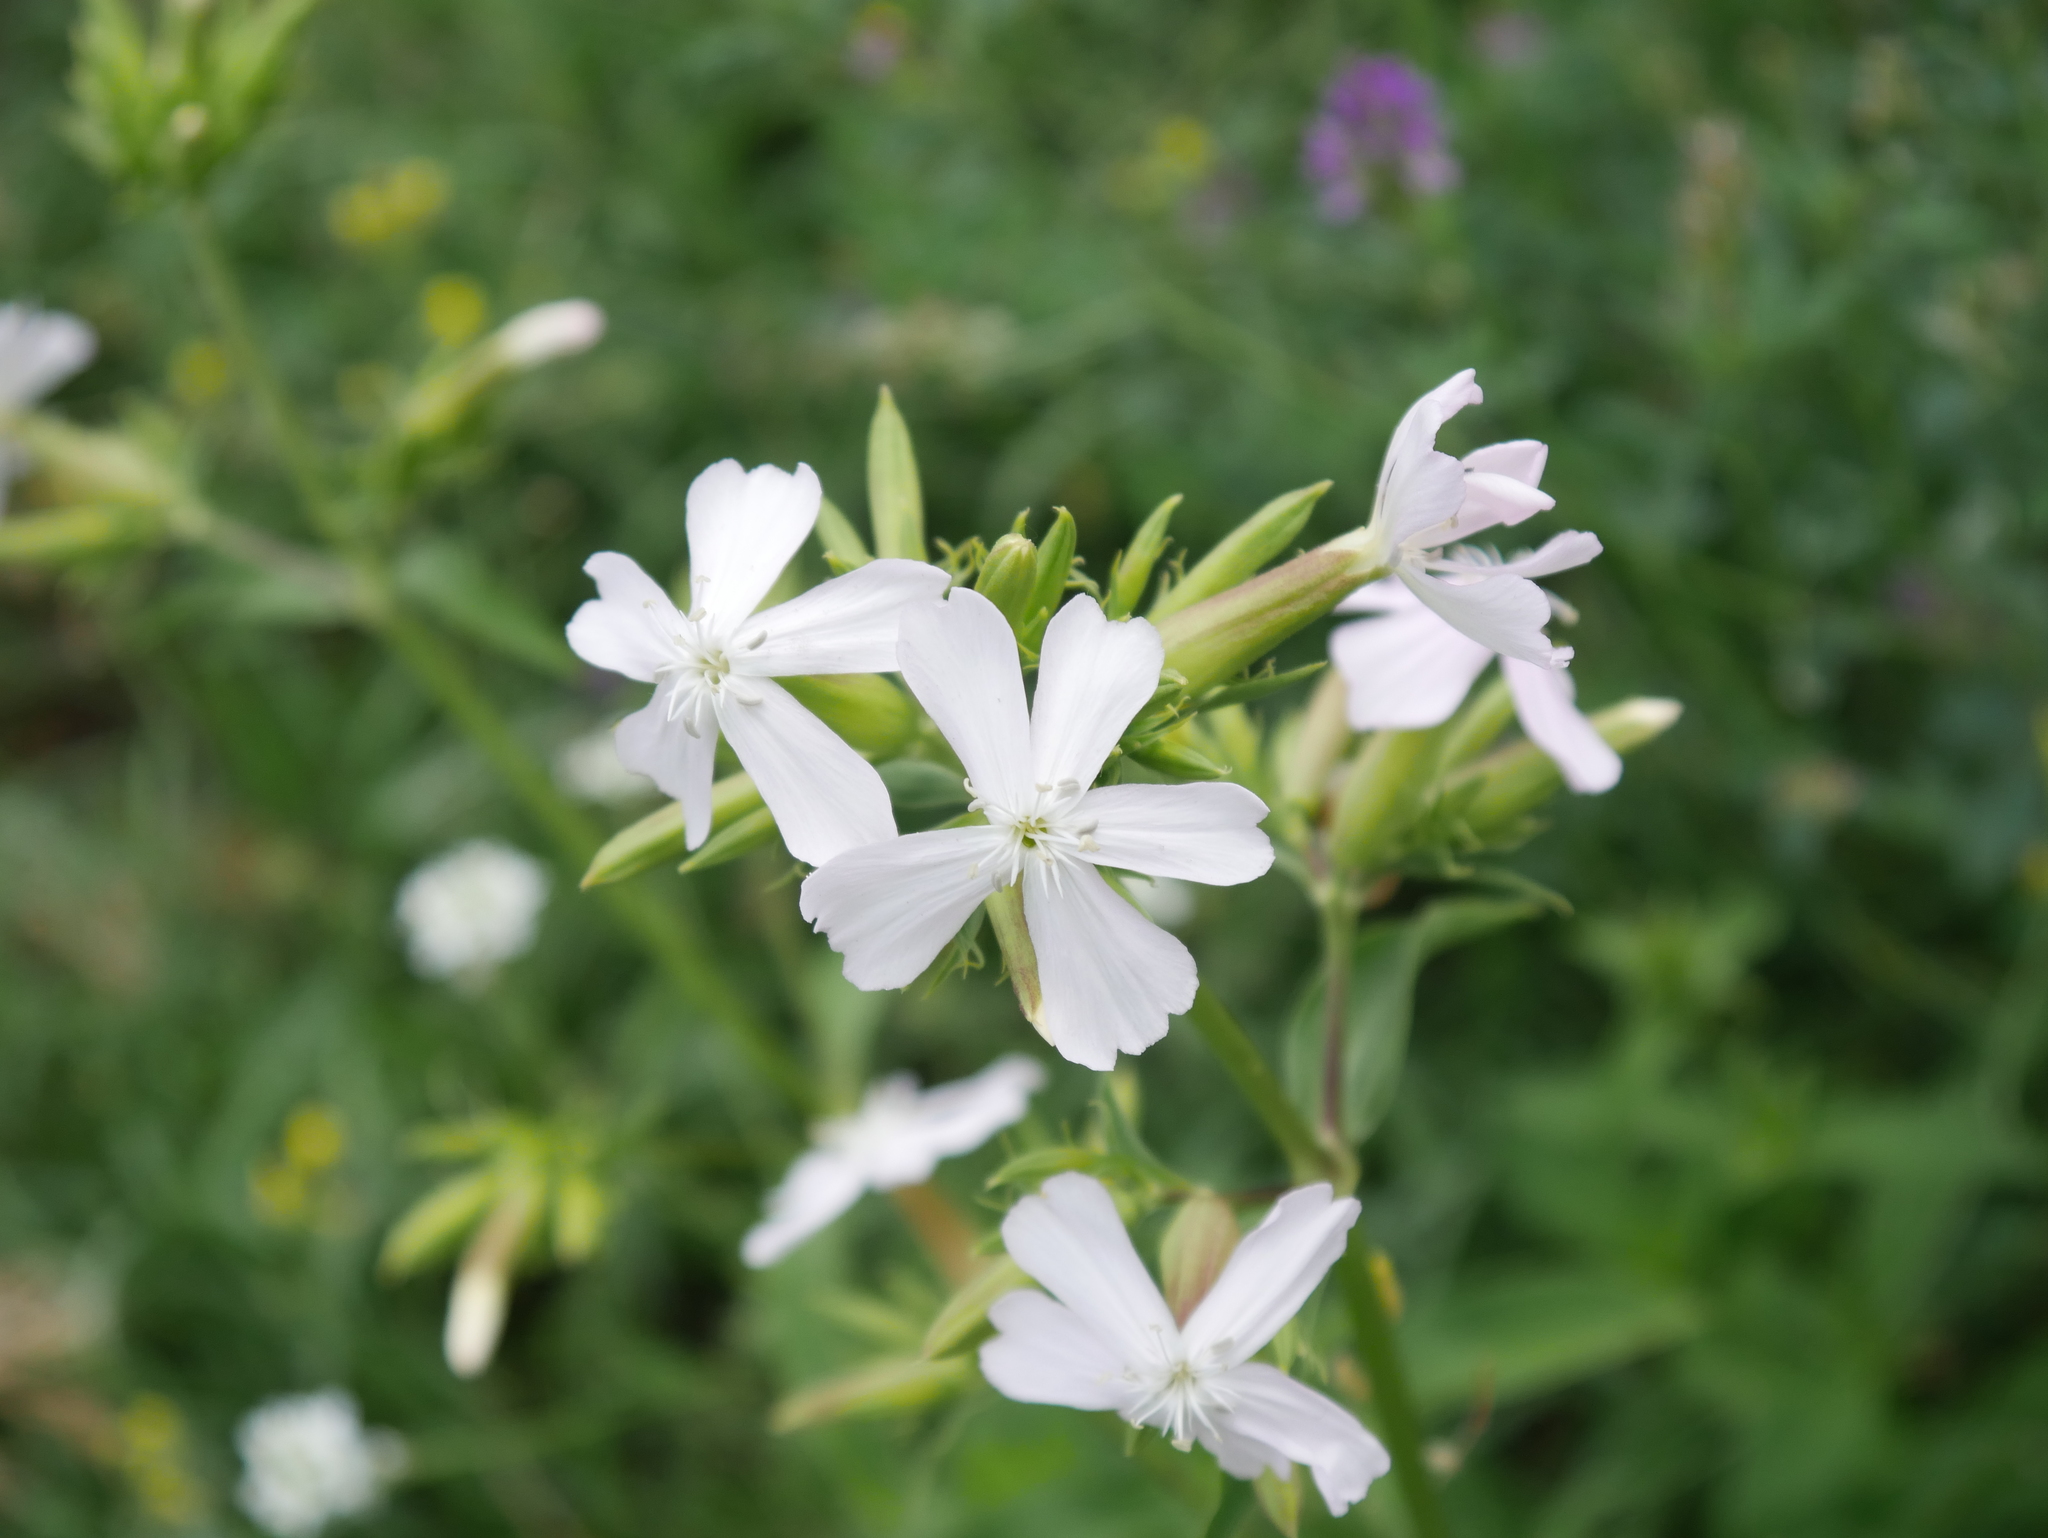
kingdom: Plantae
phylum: Tracheophyta
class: Magnoliopsida
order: Caryophyllales
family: Caryophyllaceae
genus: Saponaria
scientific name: Saponaria officinalis
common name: Soapwort
